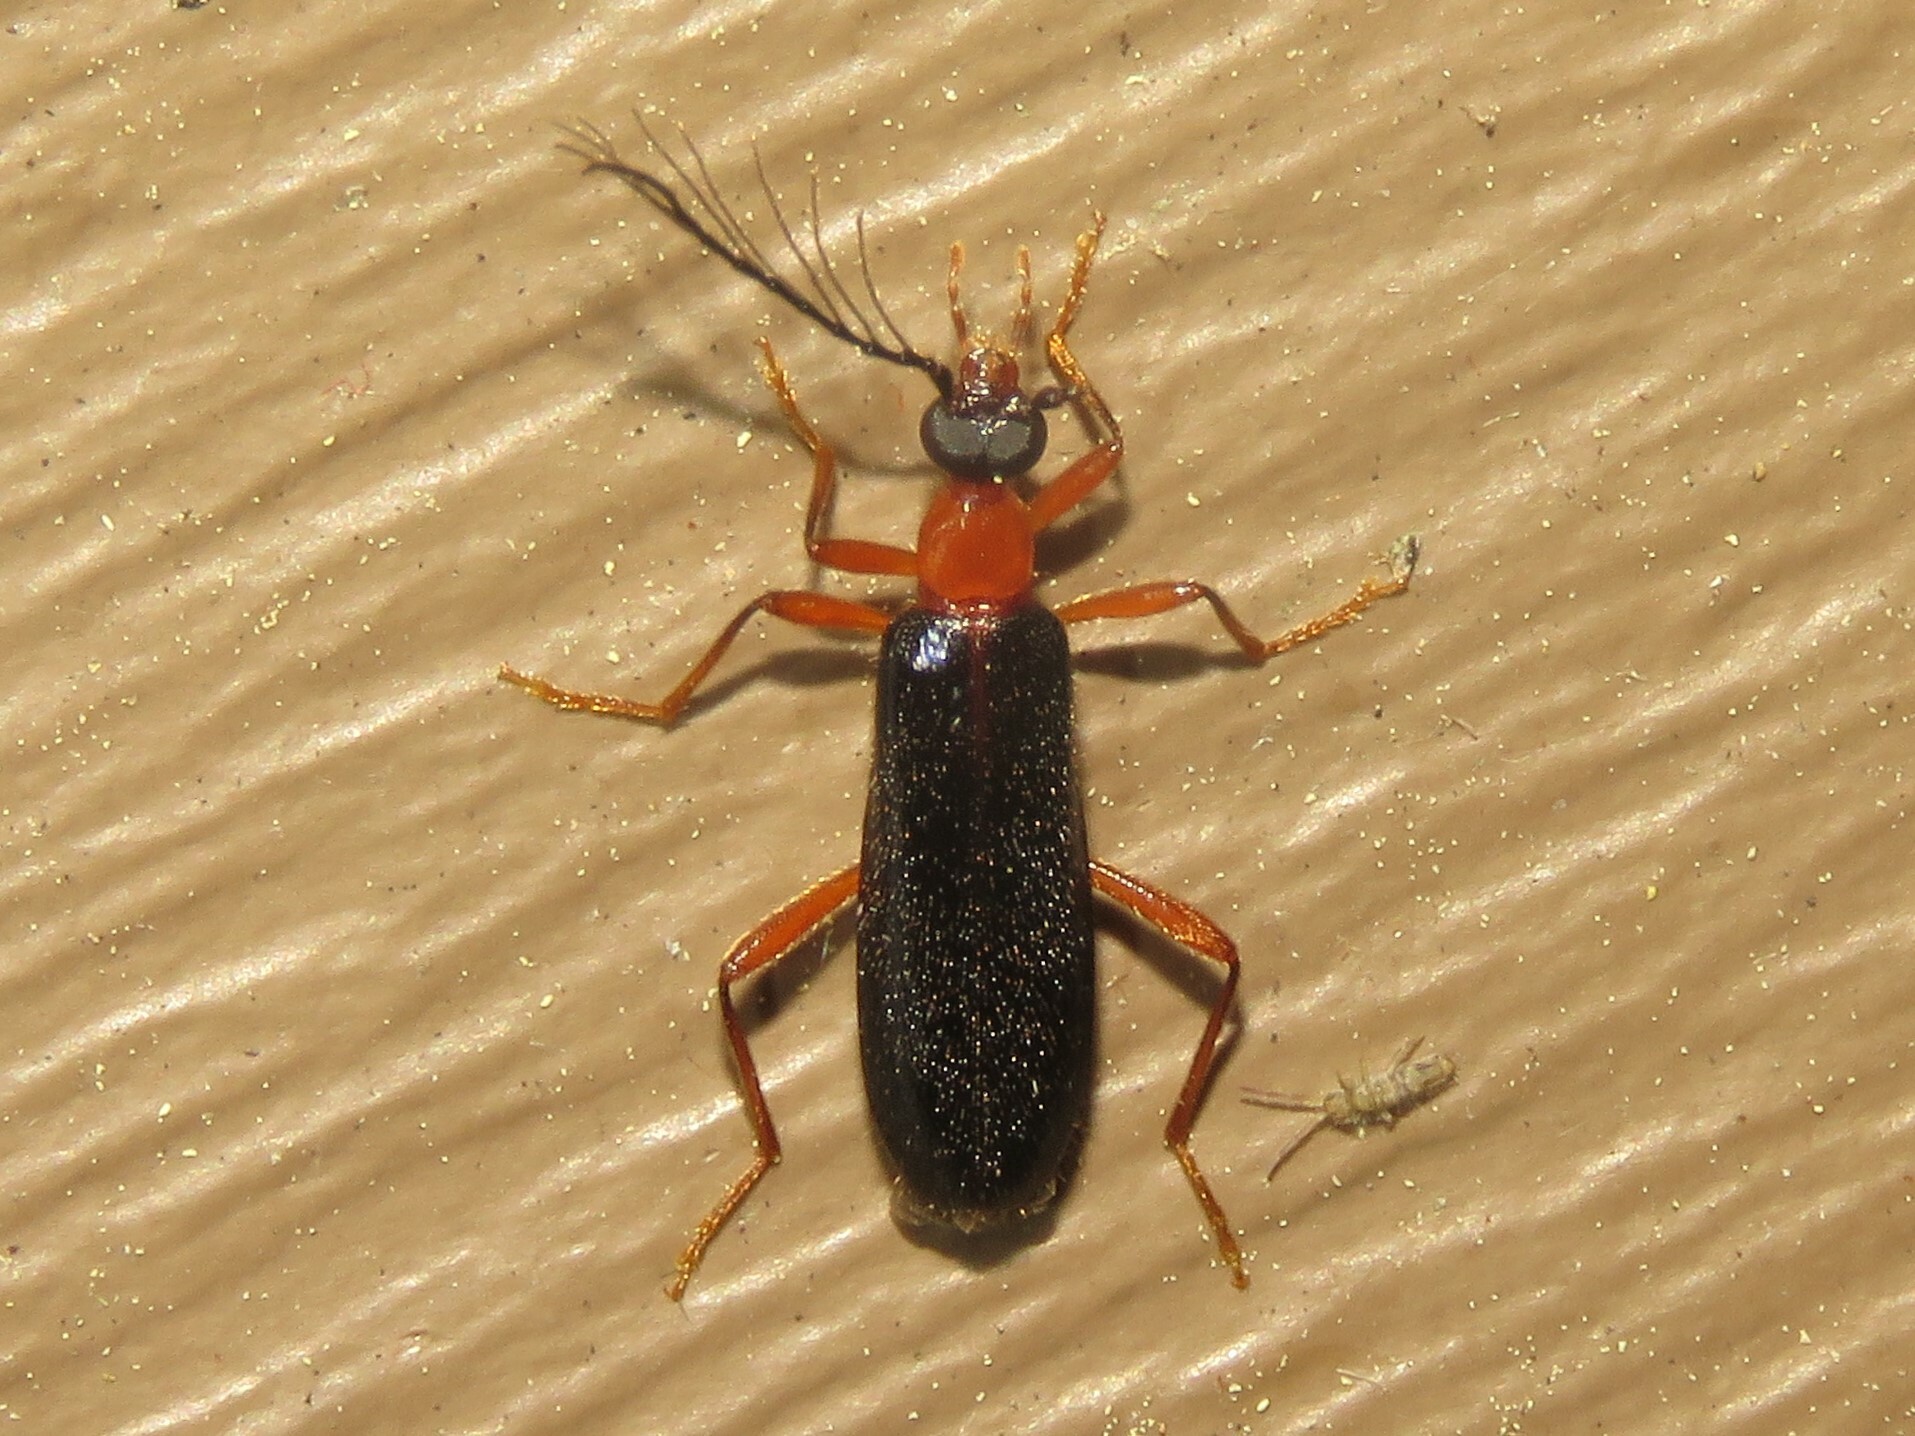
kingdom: Animalia
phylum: Arthropoda
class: Insecta
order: Coleoptera
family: Pyrochroidae
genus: Dendroides
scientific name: Dendroides canadensis
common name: Canada fire-colored beetle
